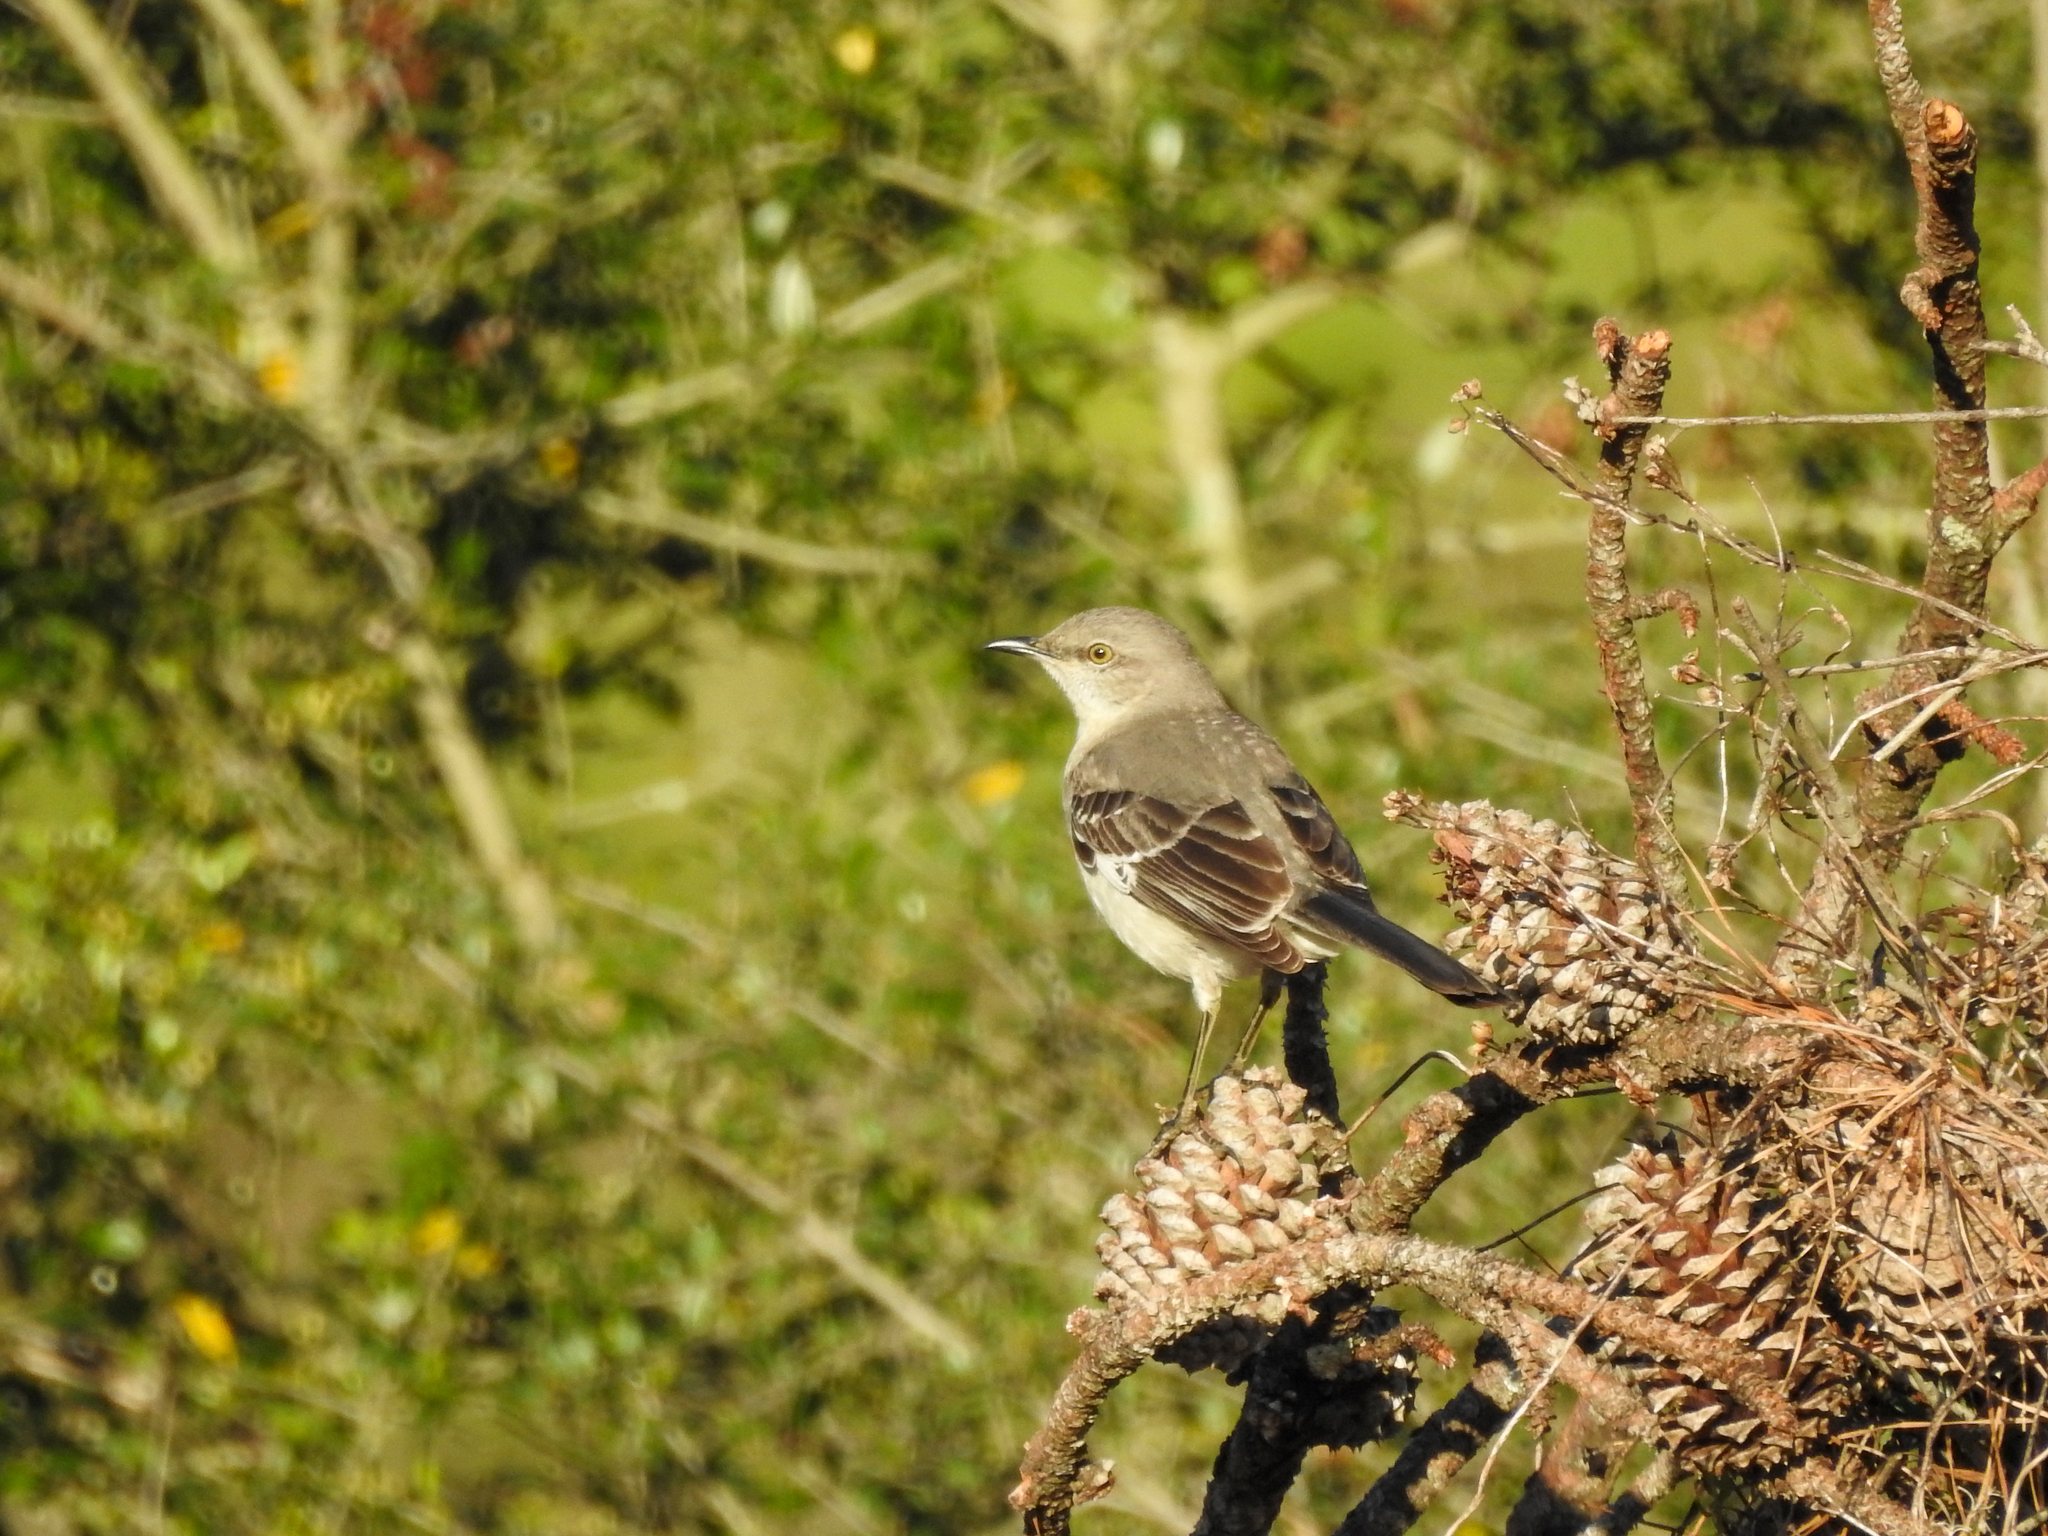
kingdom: Animalia
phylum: Chordata
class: Aves
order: Passeriformes
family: Mimidae
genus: Mimus
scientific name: Mimus polyglottos
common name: Northern mockingbird
